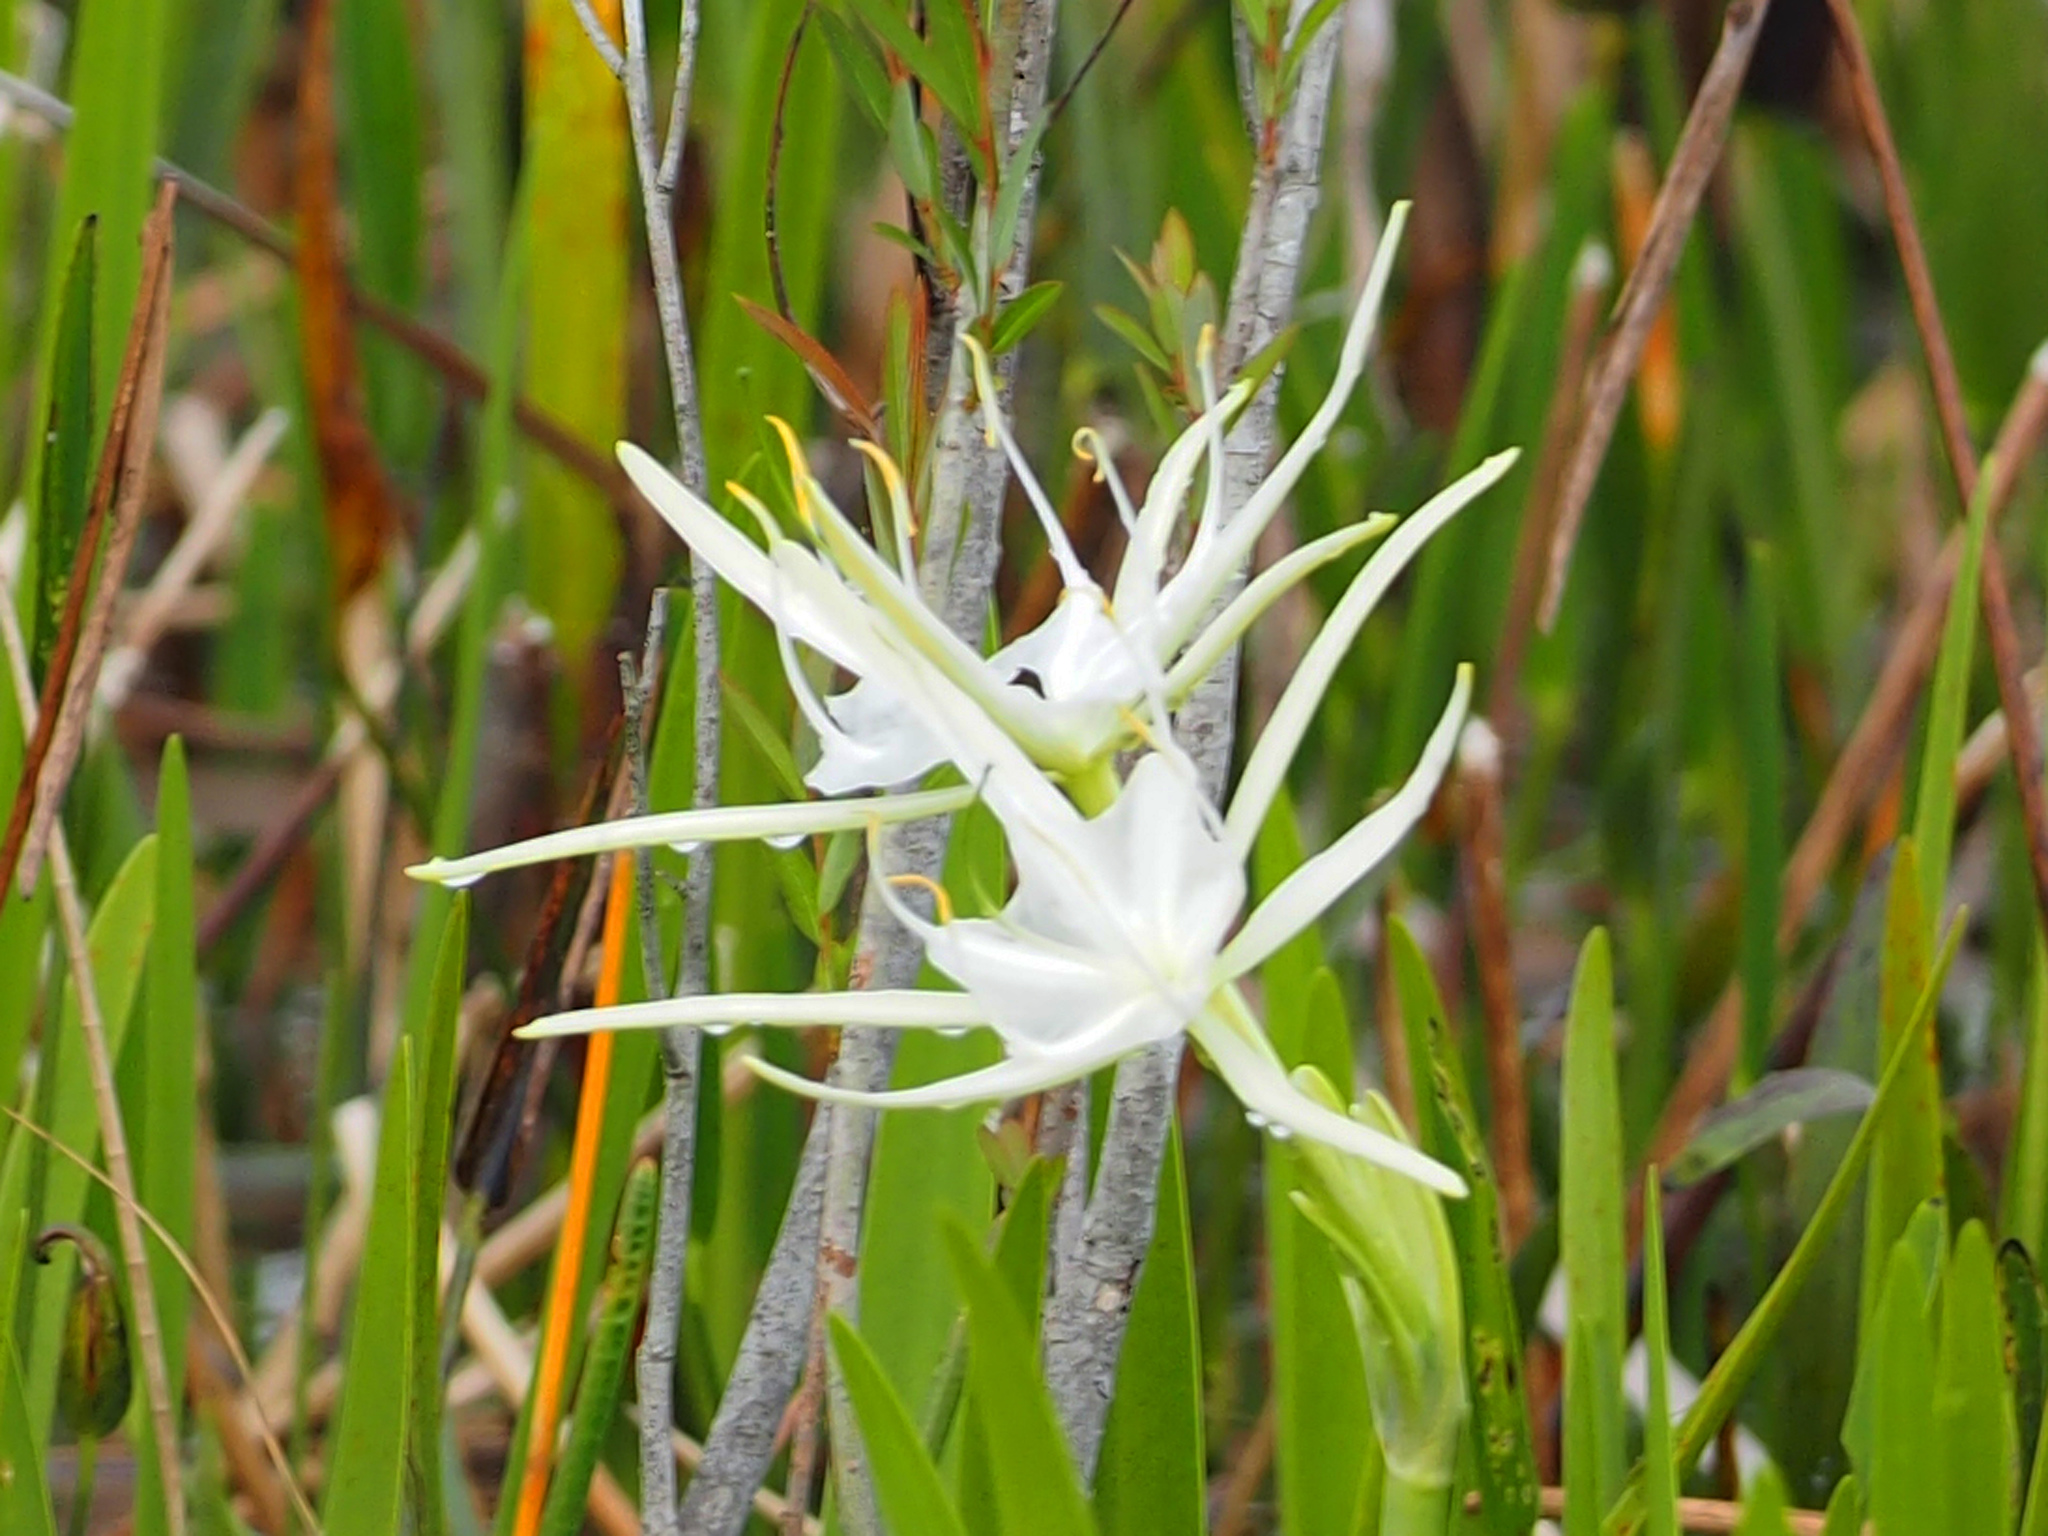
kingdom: Plantae
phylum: Tracheophyta
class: Liliopsida
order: Asparagales
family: Amaryllidaceae
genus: Hymenocallis
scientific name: Hymenocallis tridentata
